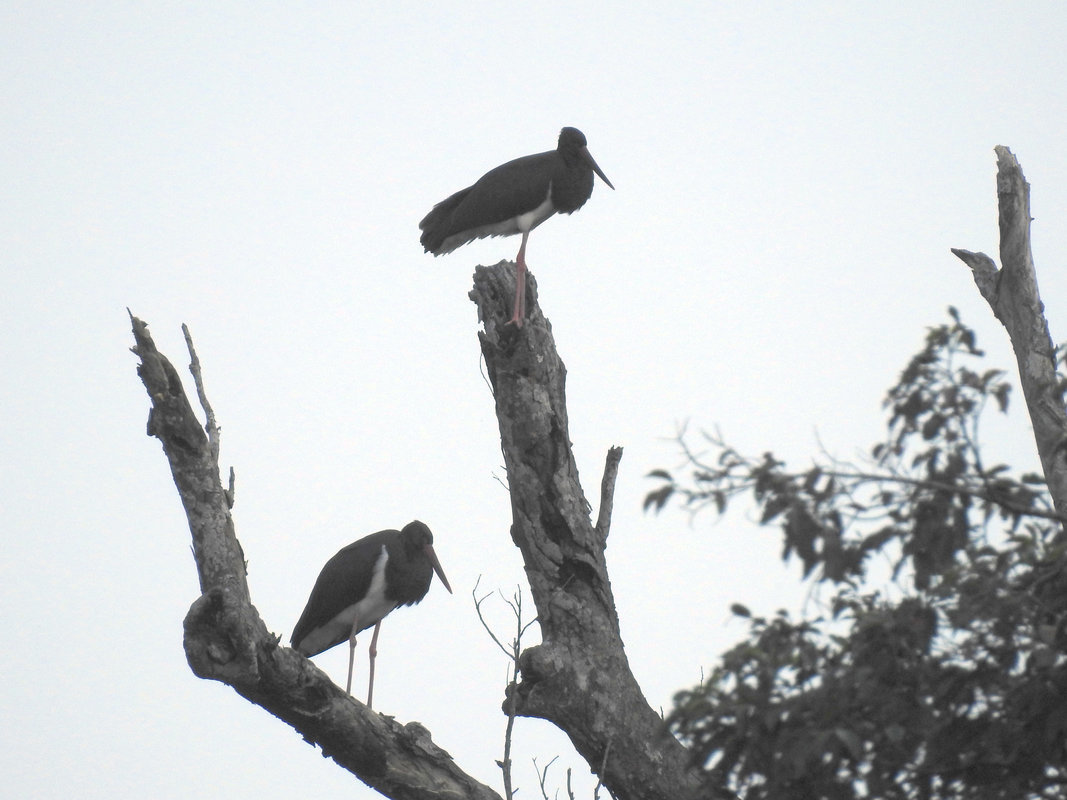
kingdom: Animalia
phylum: Chordata
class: Aves
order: Ciconiiformes
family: Ciconiidae
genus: Ciconia
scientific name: Ciconia nigra
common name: Black stork
